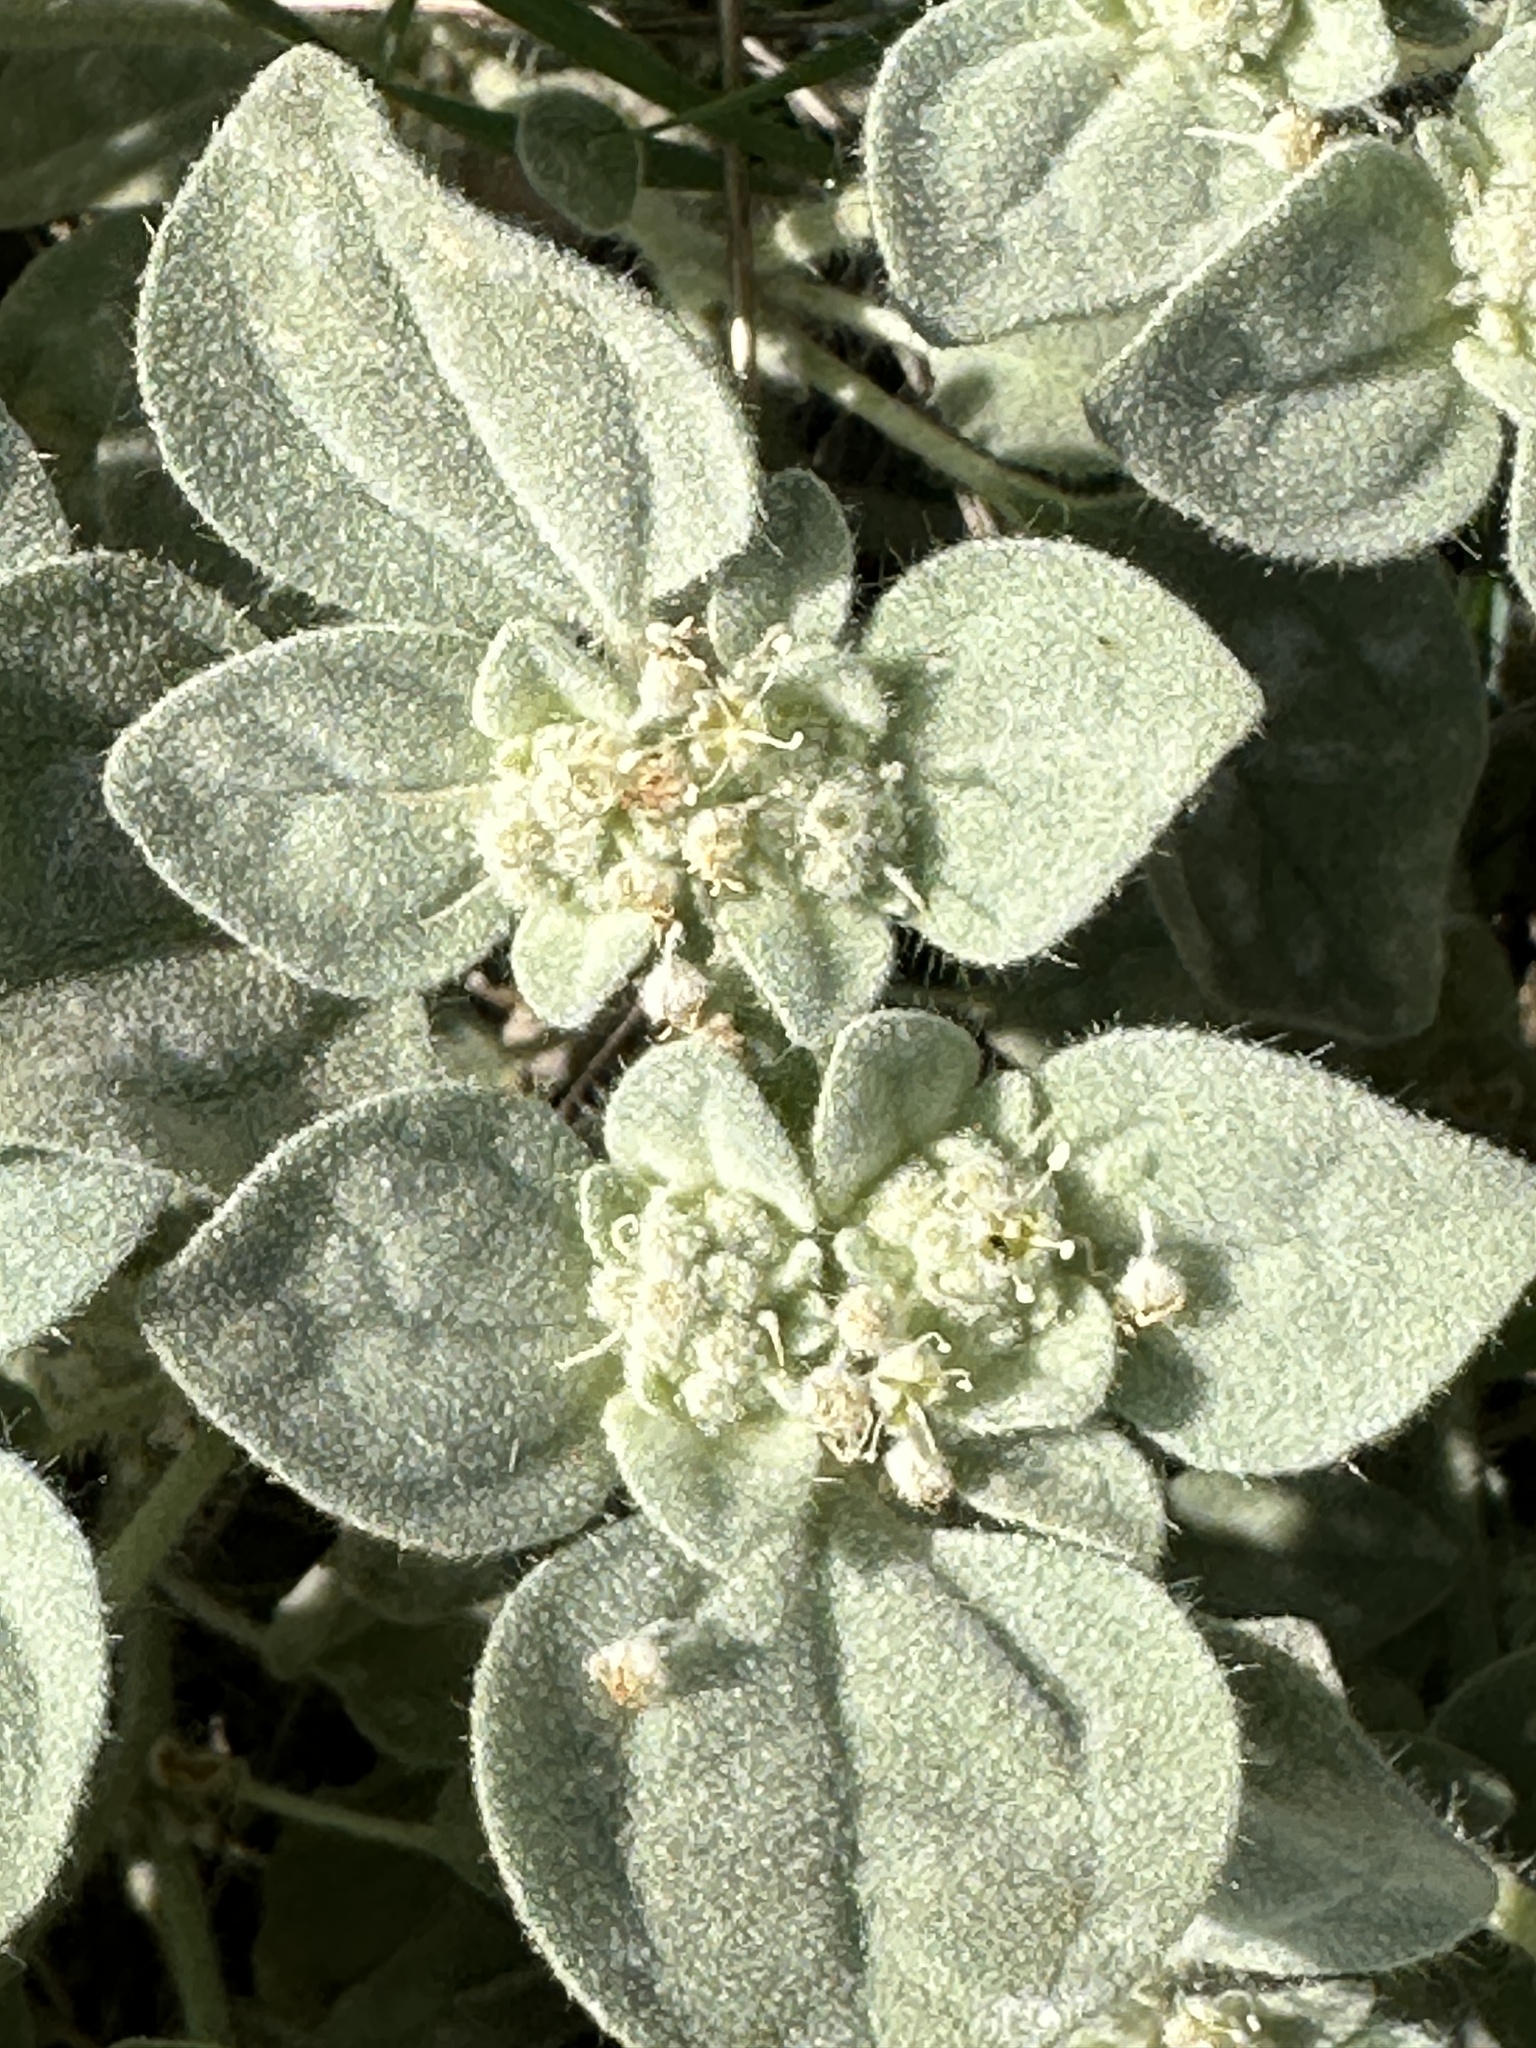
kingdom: Plantae
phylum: Tracheophyta
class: Magnoliopsida
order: Malpighiales
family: Euphorbiaceae
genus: Croton
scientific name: Croton setiger
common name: Dove weed
